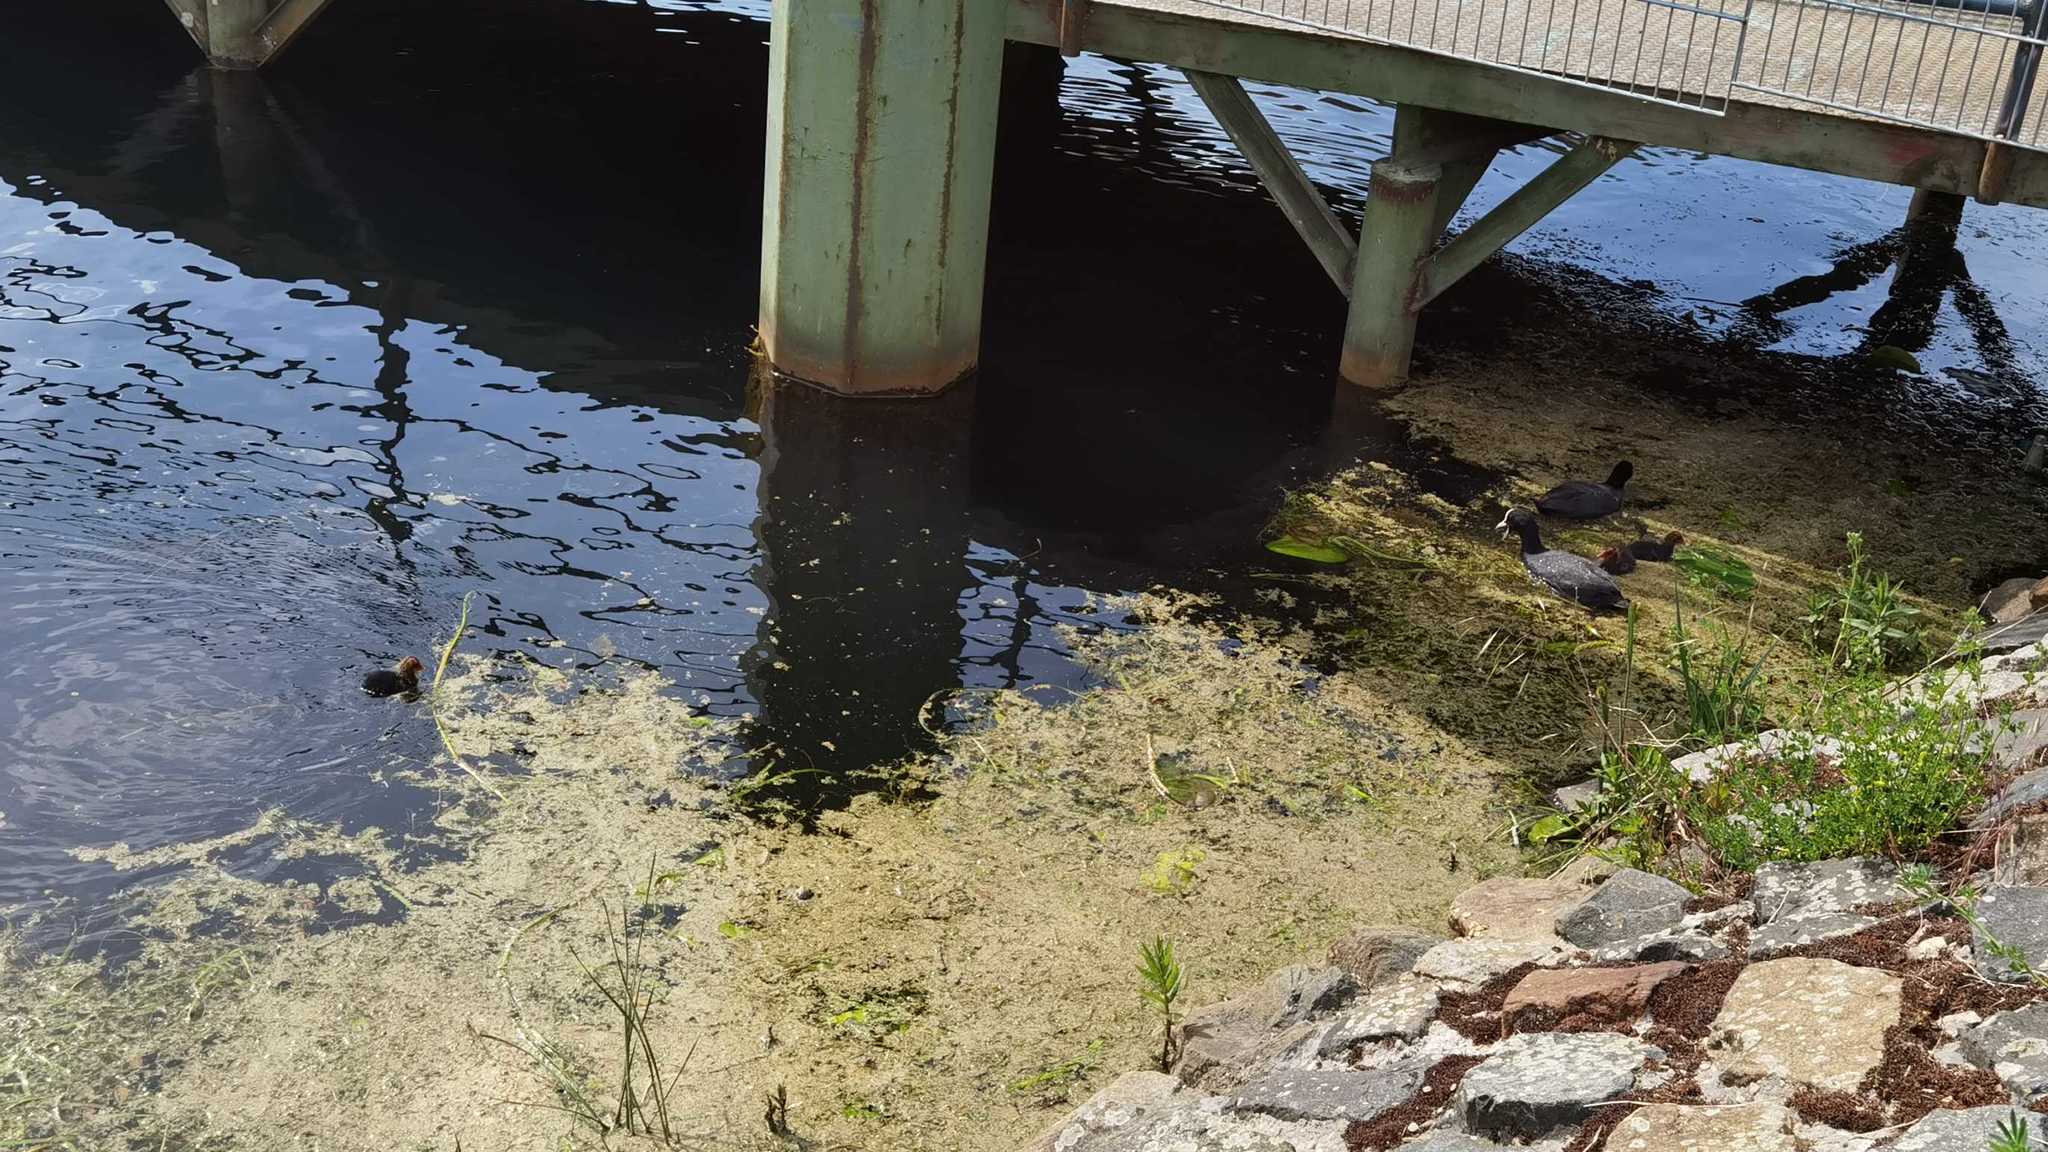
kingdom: Animalia
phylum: Chordata
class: Aves
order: Gruiformes
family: Rallidae
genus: Fulica
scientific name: Fulica atra
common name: Eurasian coot
